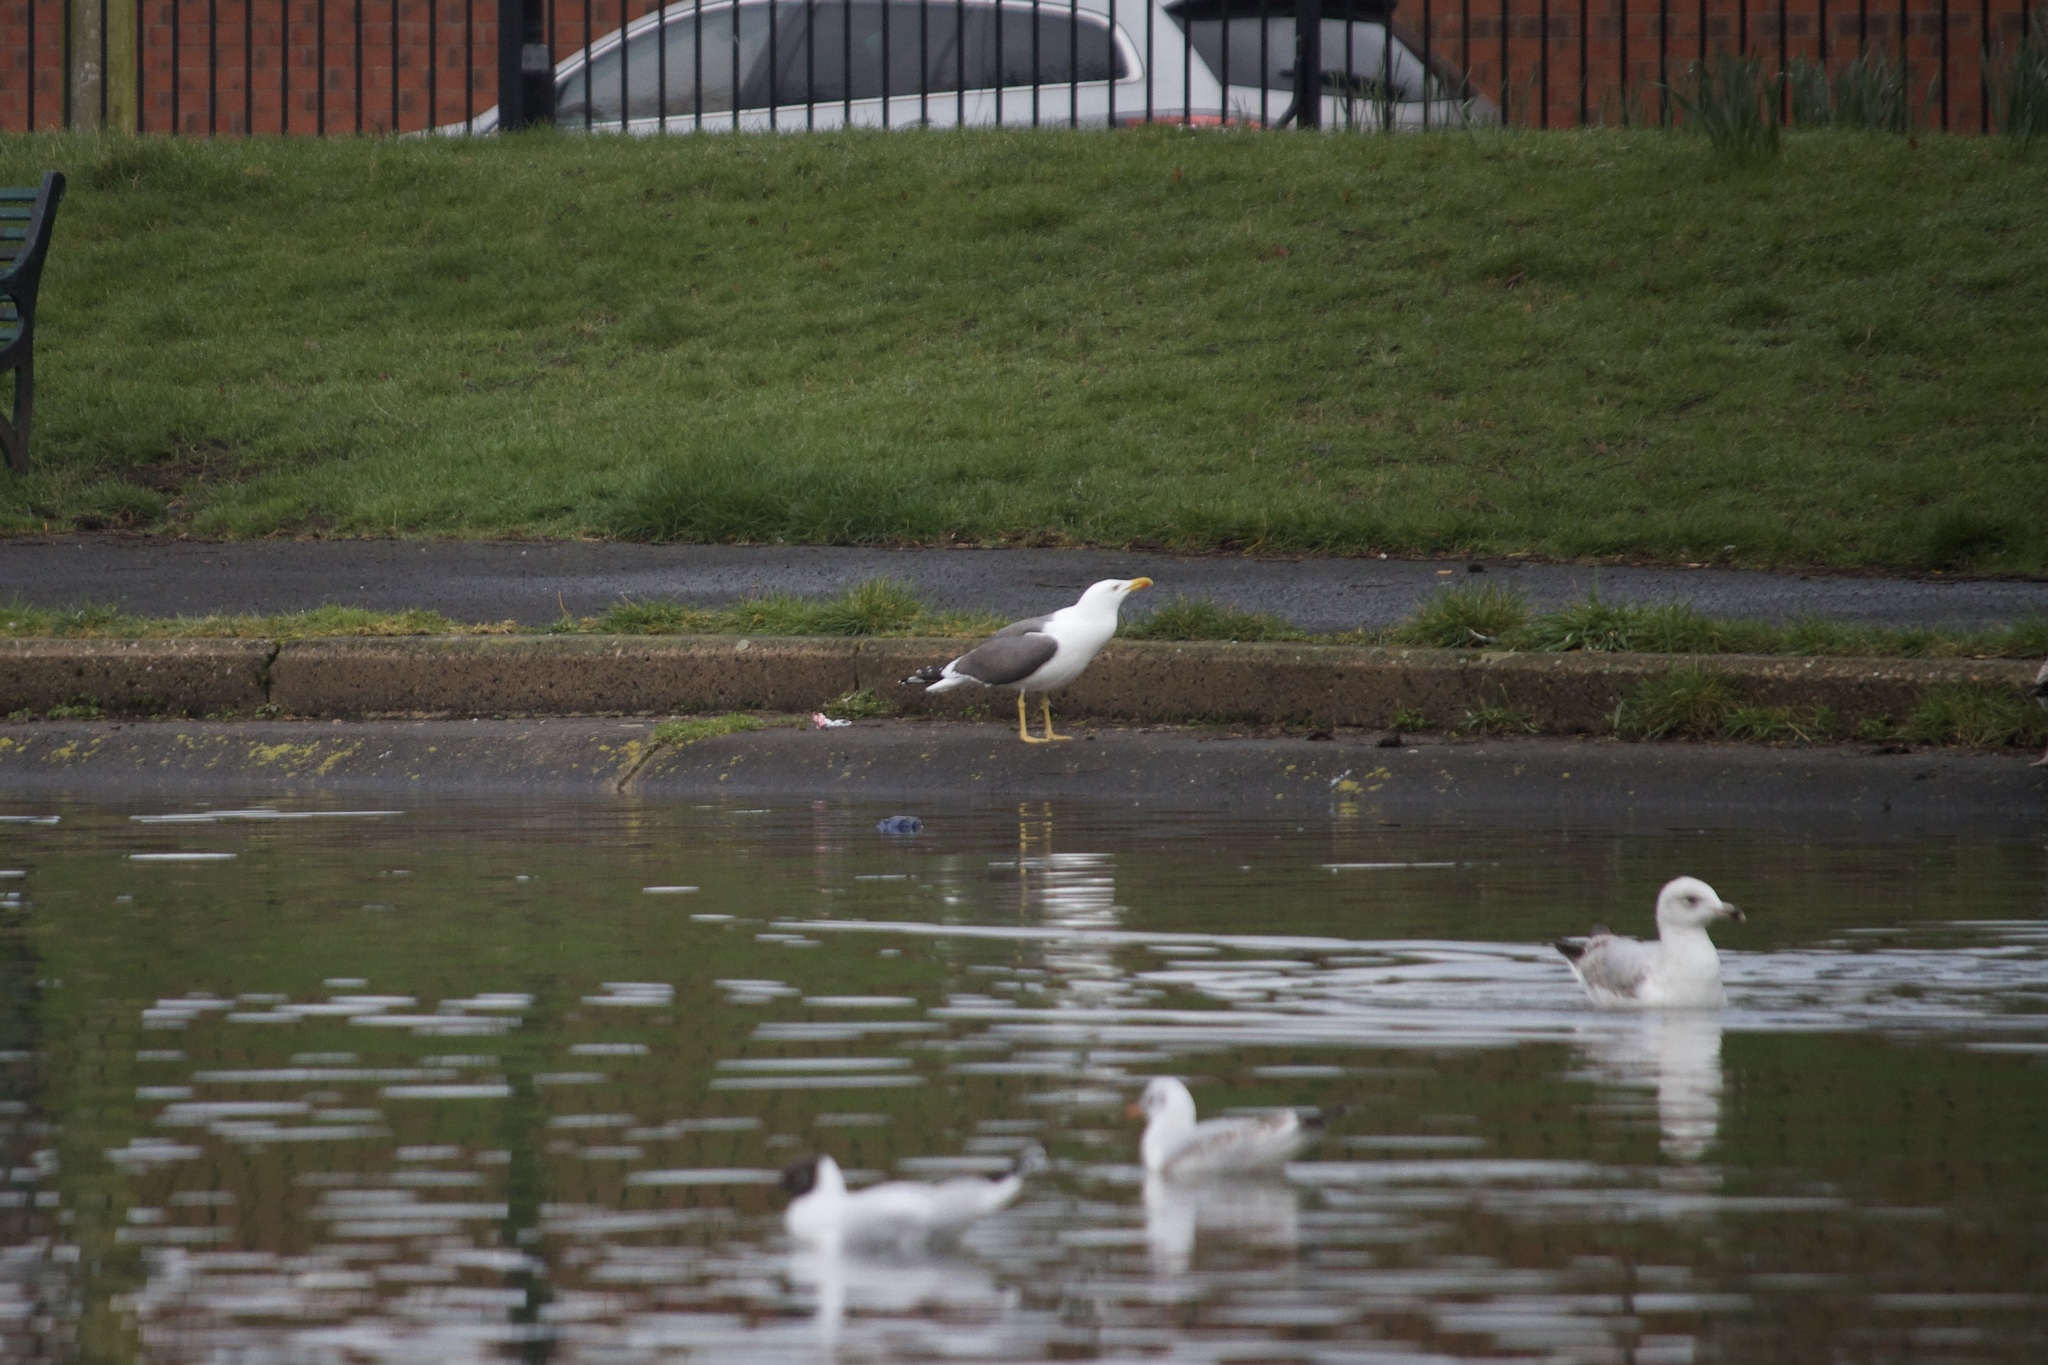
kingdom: Animalia
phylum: Chordata
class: Aves
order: Charadriiformes
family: Laridae
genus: Larus
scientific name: Larus fuscus
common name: Lesser black-backed gull
